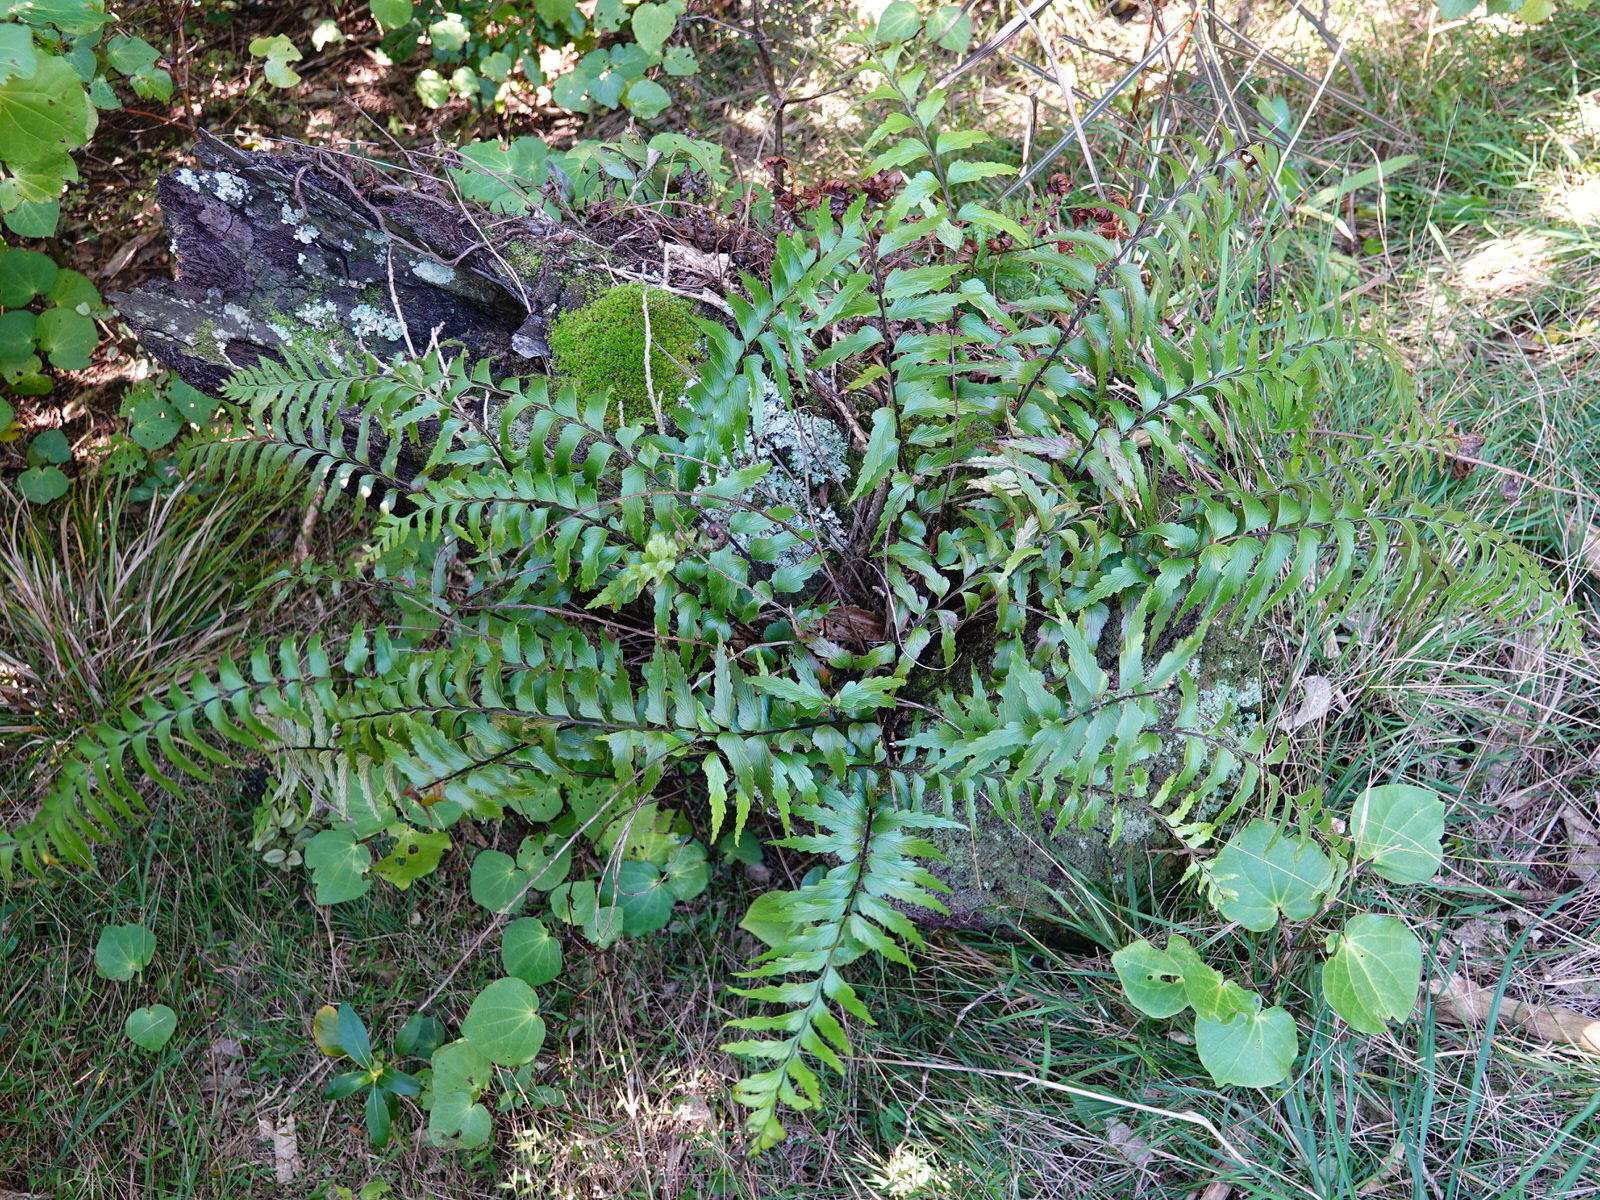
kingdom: Plantae
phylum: Tracheophyta
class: Polypodiopsida
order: Polypodiales
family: Aspleniaceae
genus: Asplenium
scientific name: Asplenium polyodon
